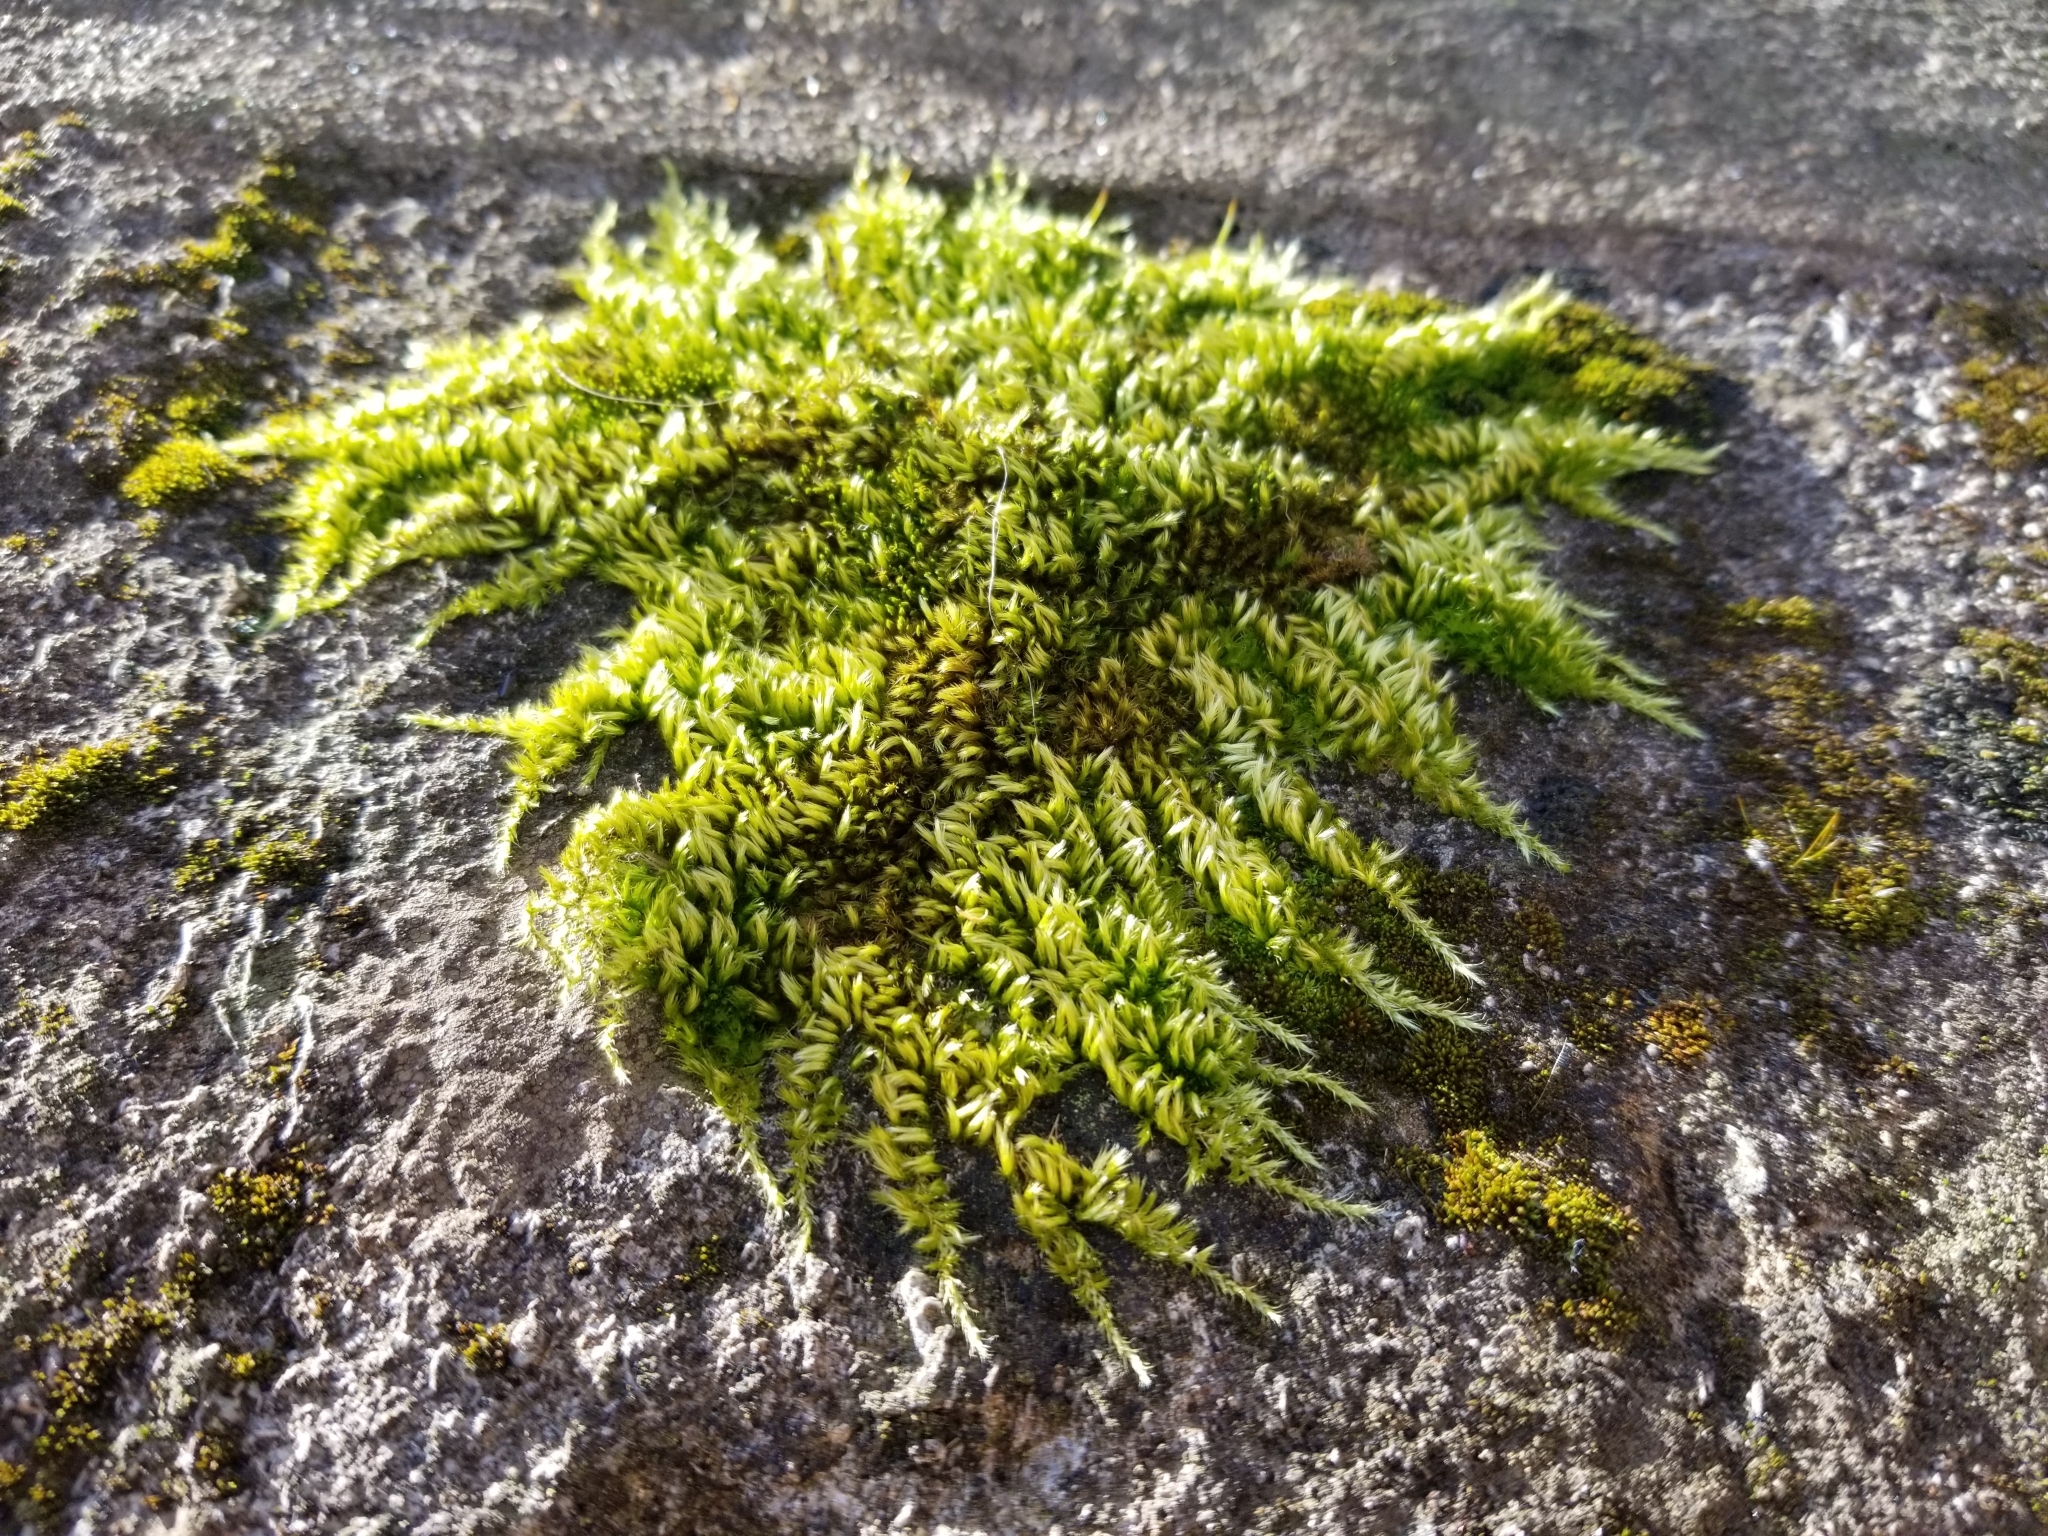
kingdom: Plantae
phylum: Bryophyta
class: Bryopsida
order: Hypnales
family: Brachytheciaceae
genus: Homalothecium
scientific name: Homalothecium sericeum
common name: Silky wall feather-moss
